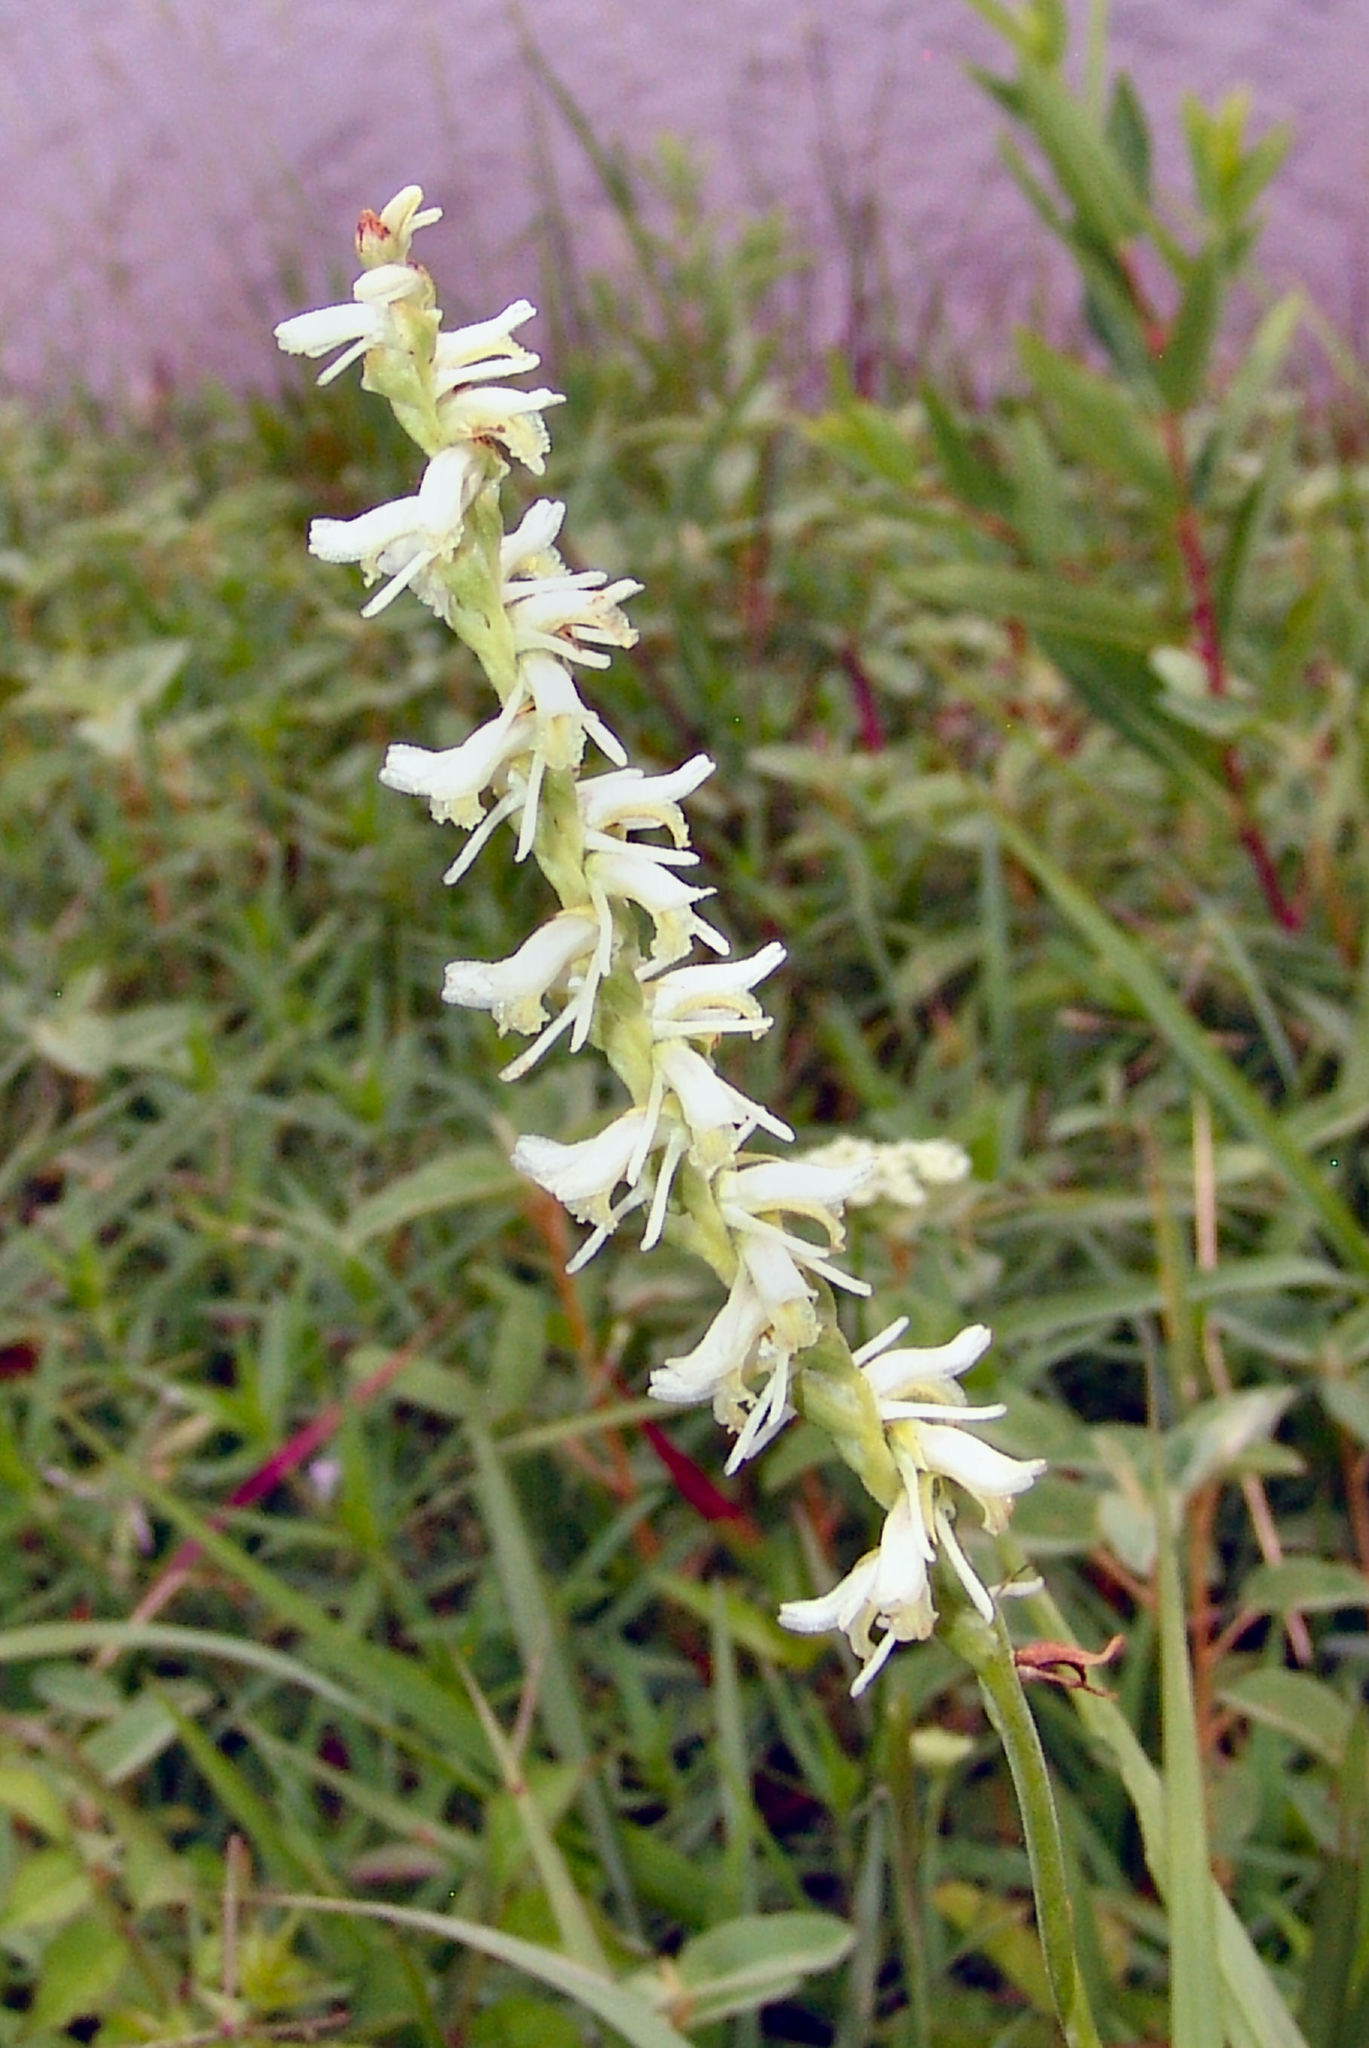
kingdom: Plantae
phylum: Tracheophyta
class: Liliopsida
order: Asparagales
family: Orchidaceae
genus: Spiranthes
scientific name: Spiranthes vernalis
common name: Spring ladies'-tresses
